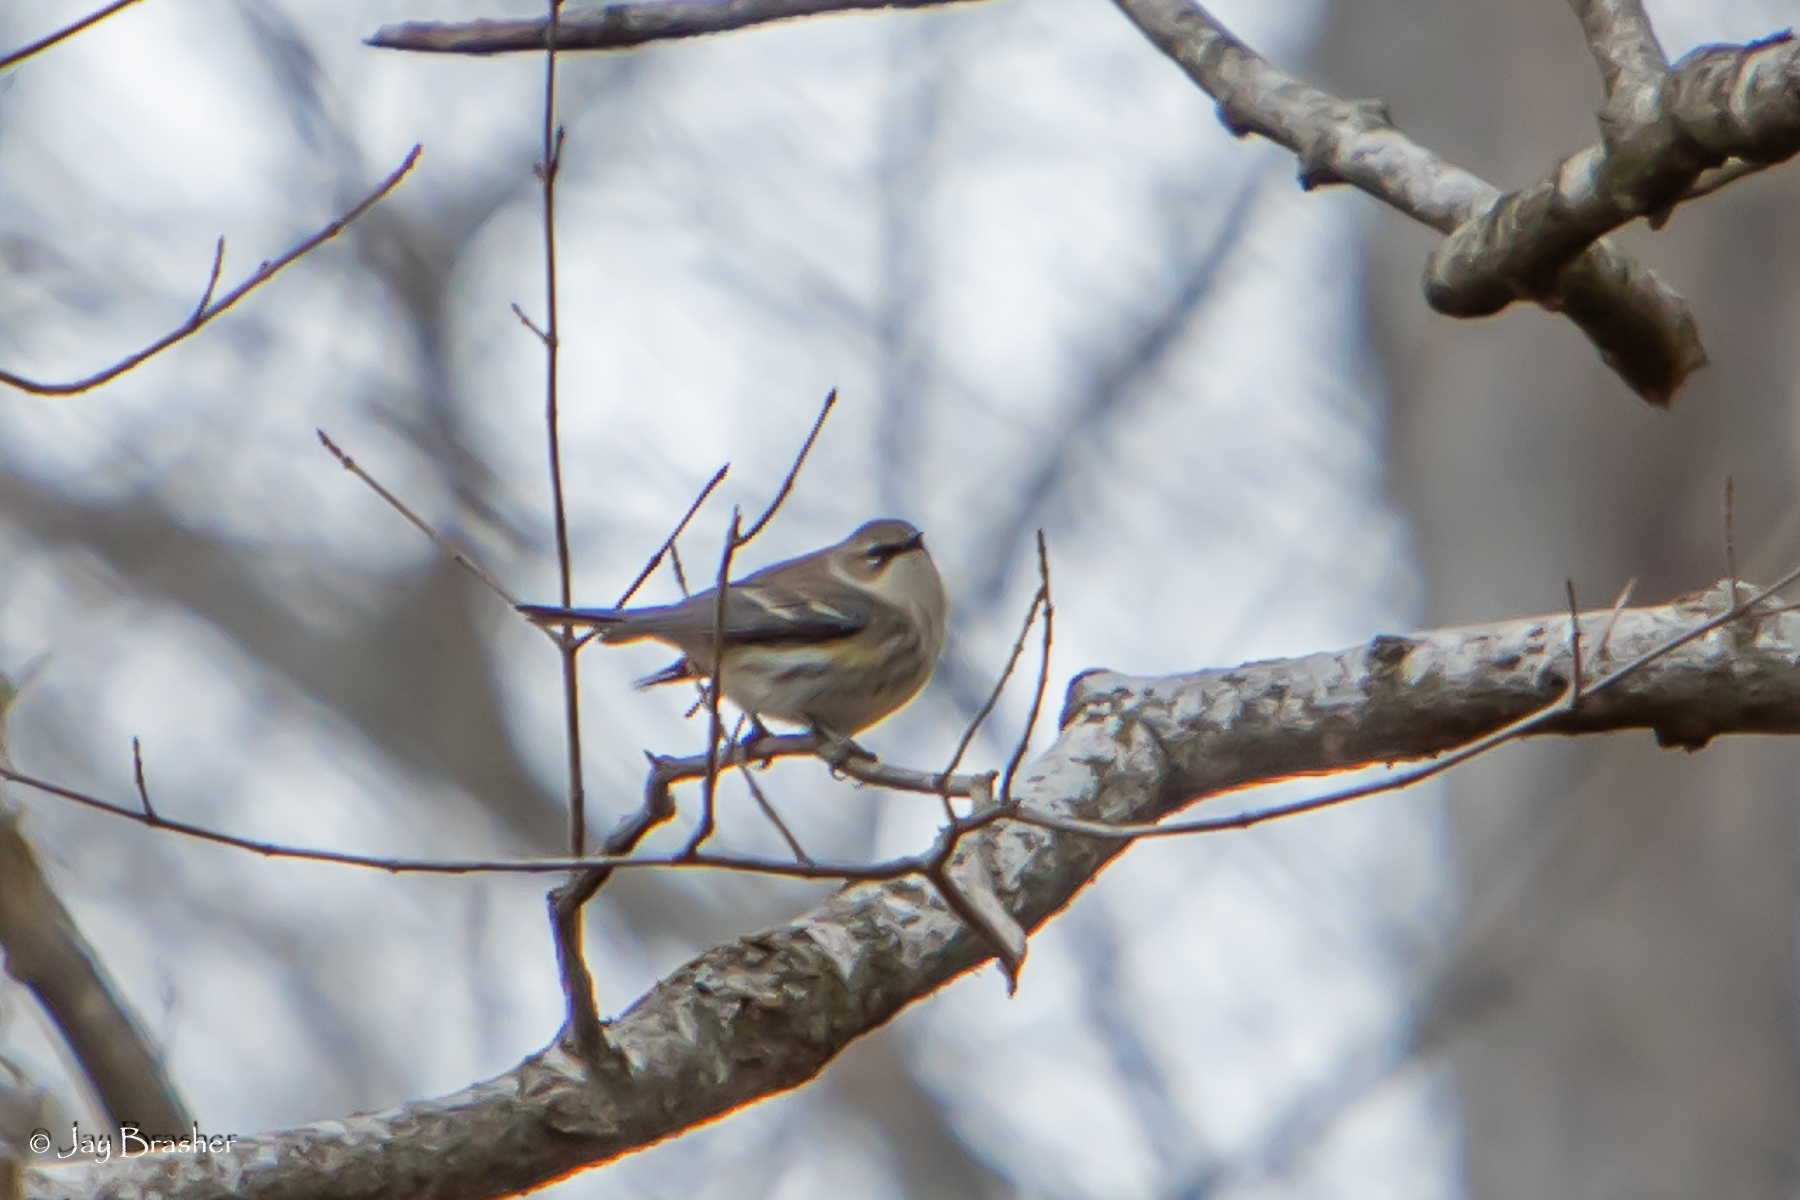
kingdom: Animalia
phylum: Chordata
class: Aves
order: Passeriformes
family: Parulidae
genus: Setophaga
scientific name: Setophaga coronata
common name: Myrtle warbler
